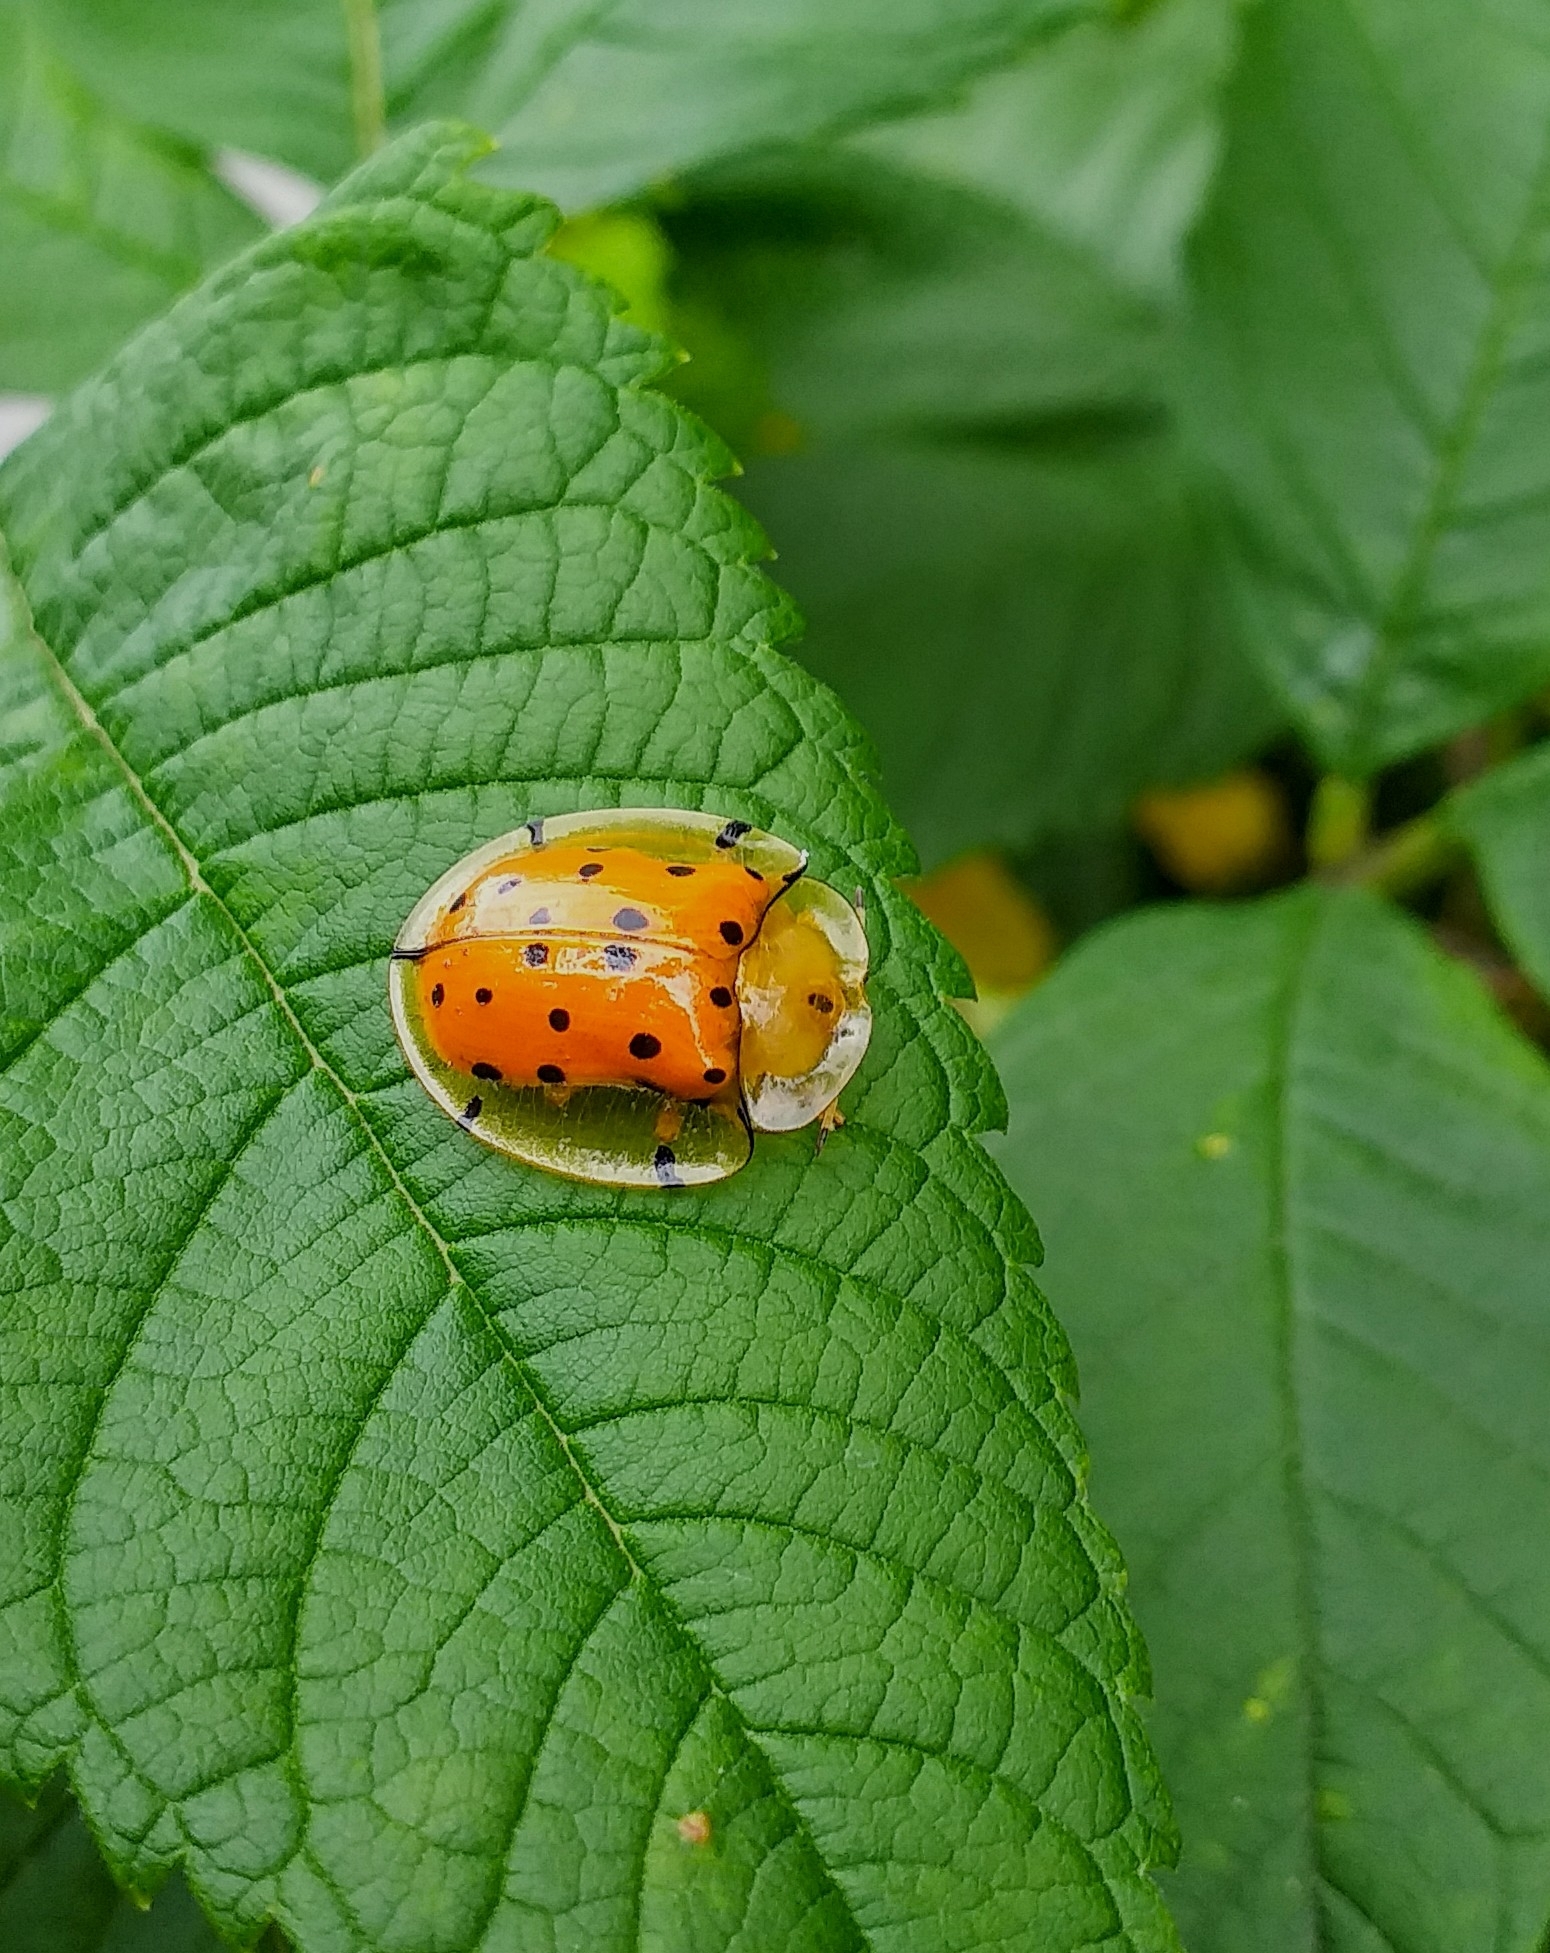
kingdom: Animalia
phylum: Arthropoda
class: Insecta
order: Coleoptera
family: Chrysomelidae
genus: Aspidimorpha
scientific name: Aspidimorpha miliaris
